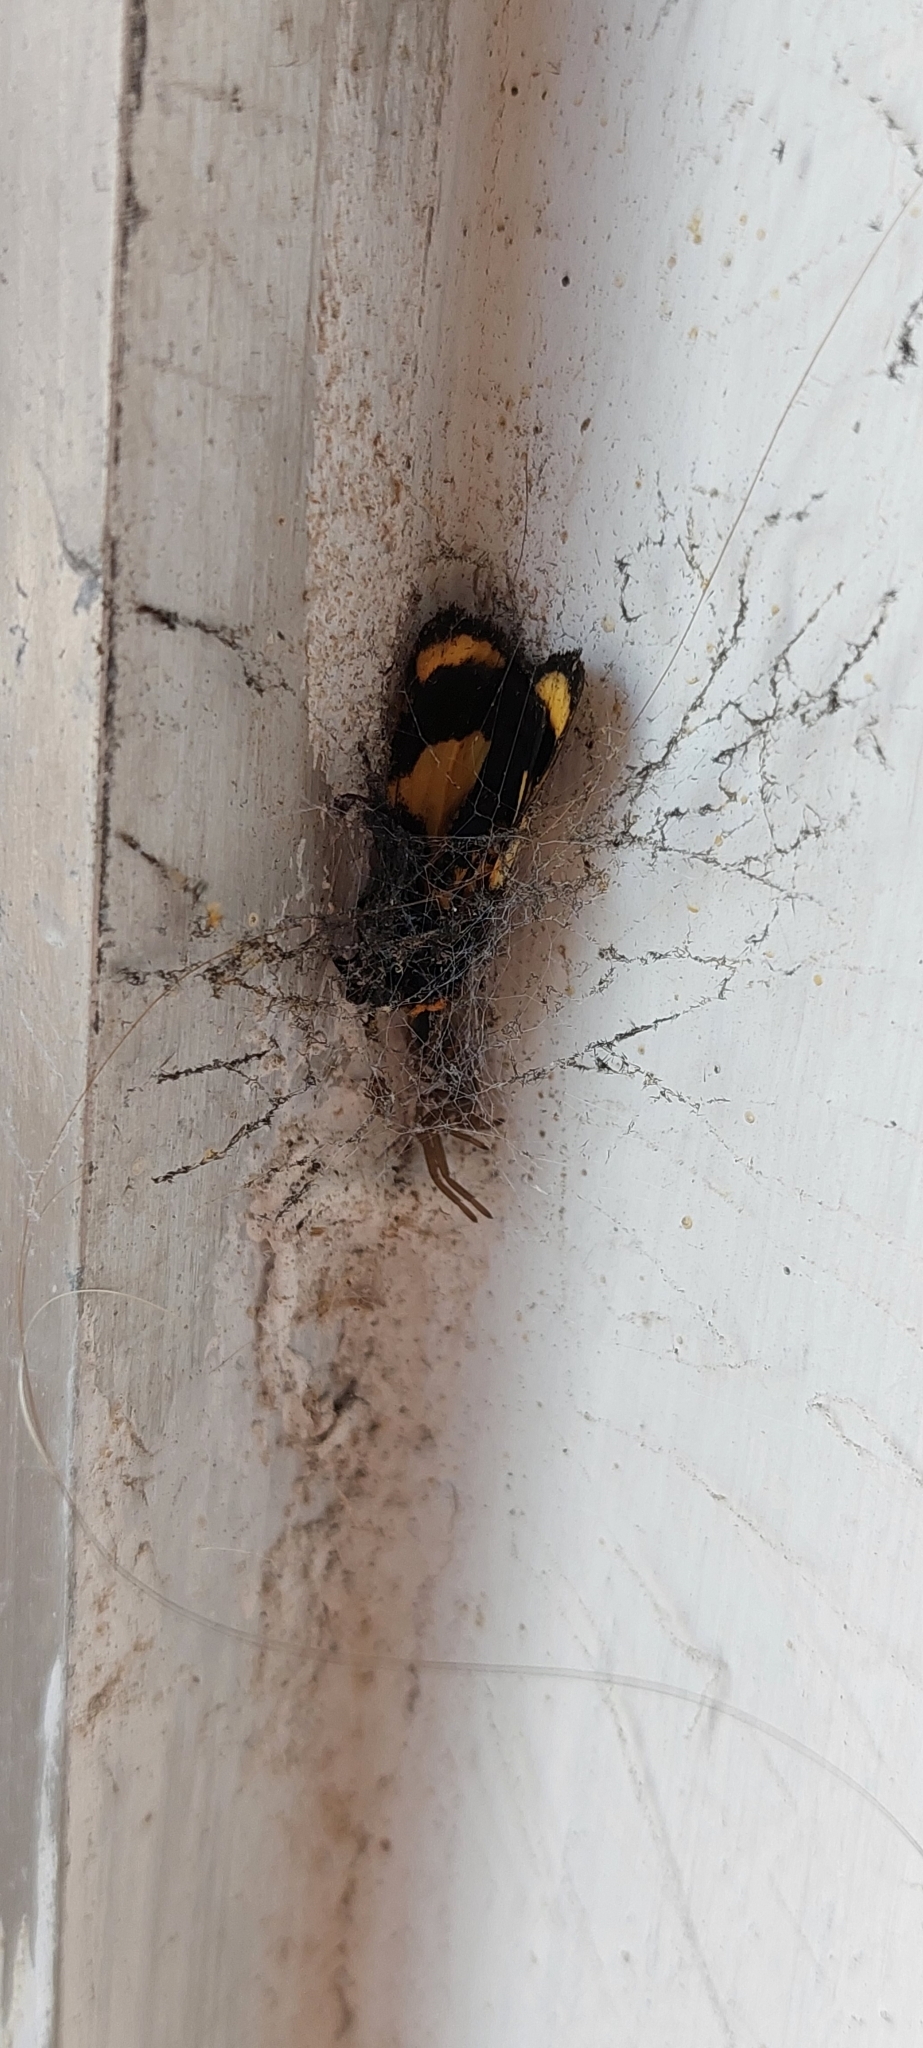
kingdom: Animalia
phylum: Arthropoda
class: Insecta
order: Lepidoptera
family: Erebidae
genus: Eudesmia
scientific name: Eudesmia
